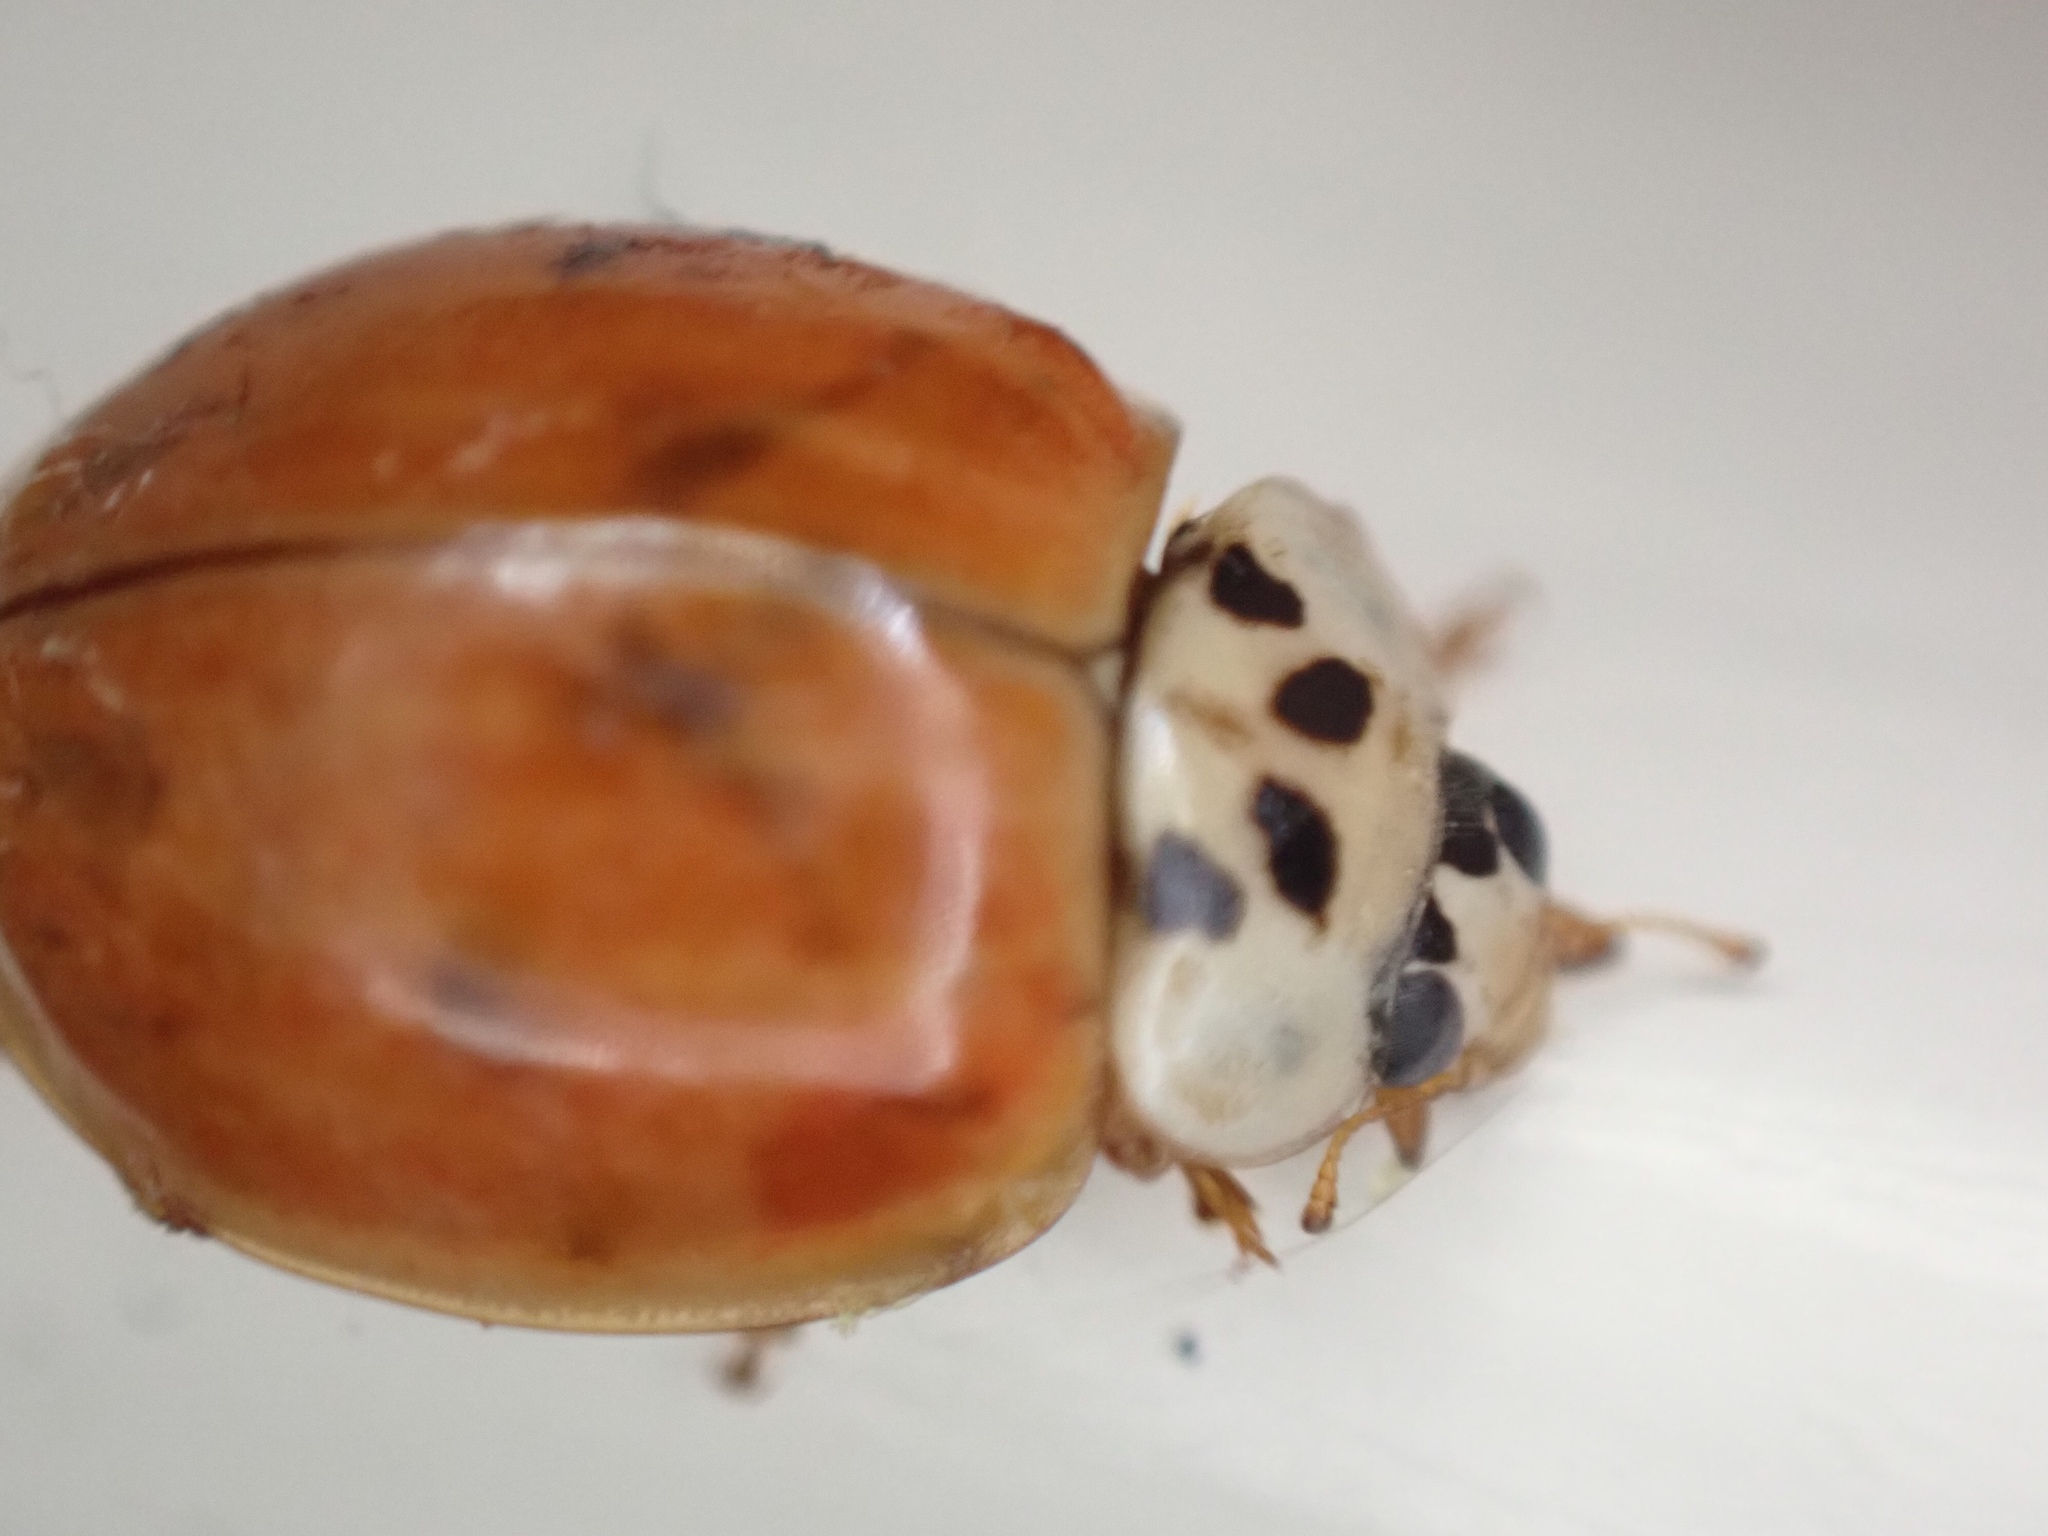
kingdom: Animalia
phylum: Arthropoda
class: Insecta
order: Coleoptera
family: Coccinellidae
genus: Harmonia
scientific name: Harmonia axyridis
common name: Harlequin ladybird
